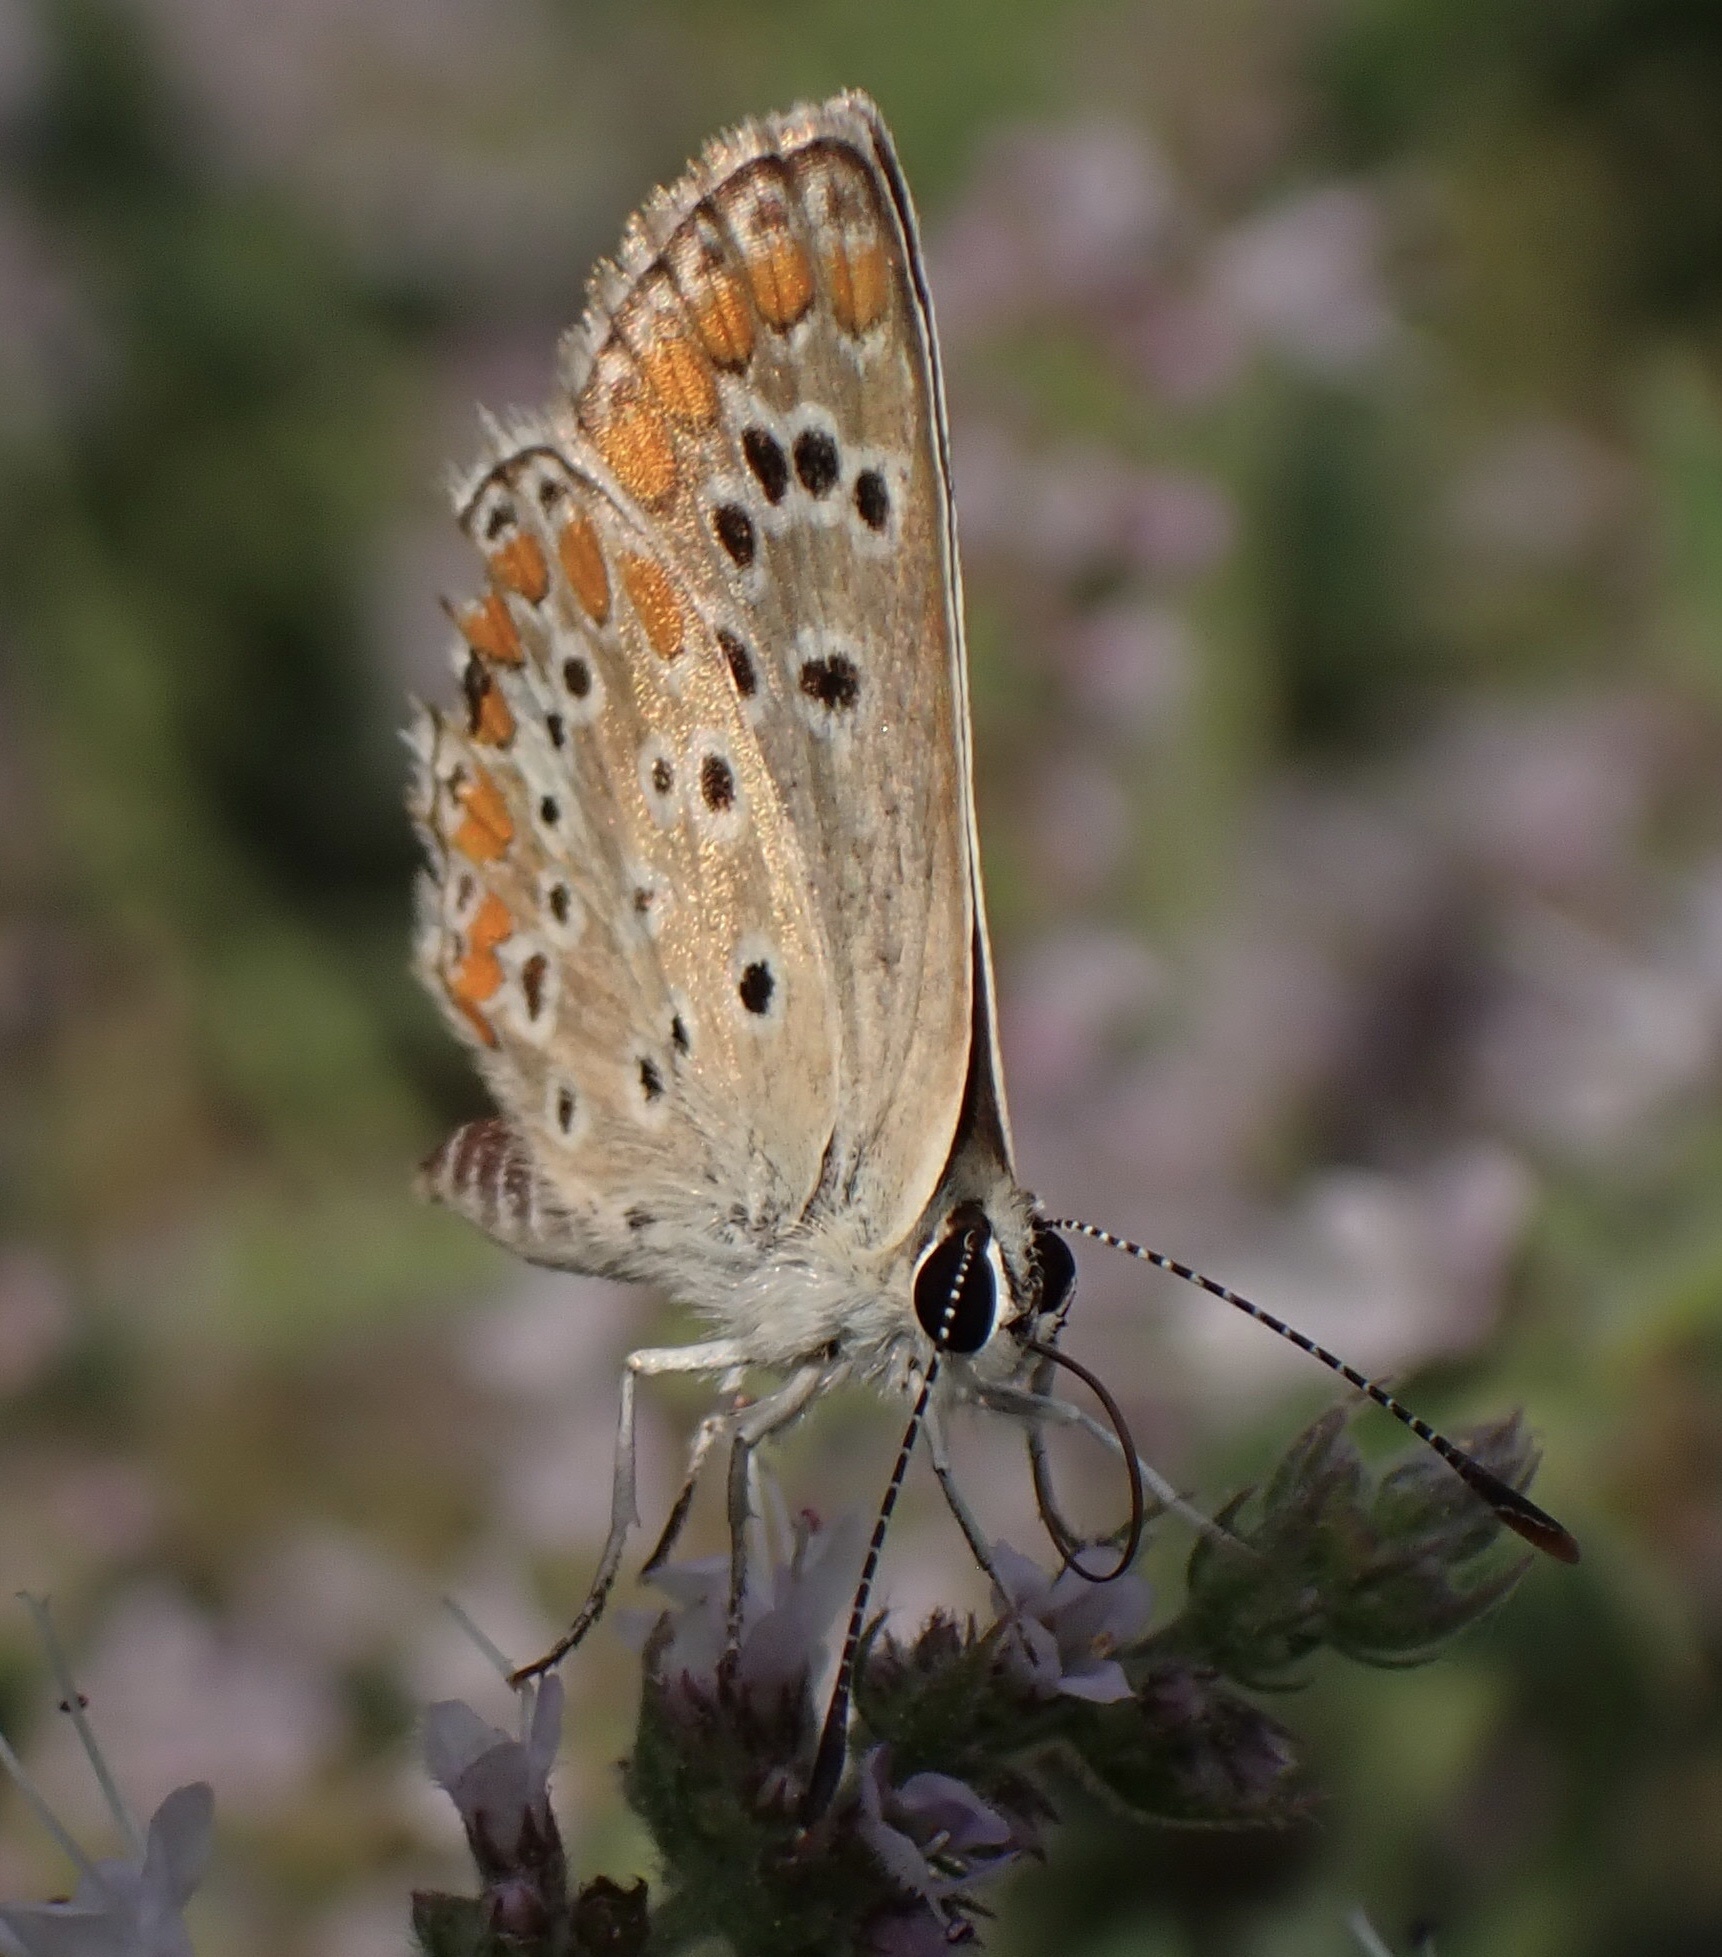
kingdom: Animalia
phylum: Arthropoda
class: Insecta
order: Lepidoptera
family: Lycaenidae
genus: Aricia
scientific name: Aricia agestis
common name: Brown argus
